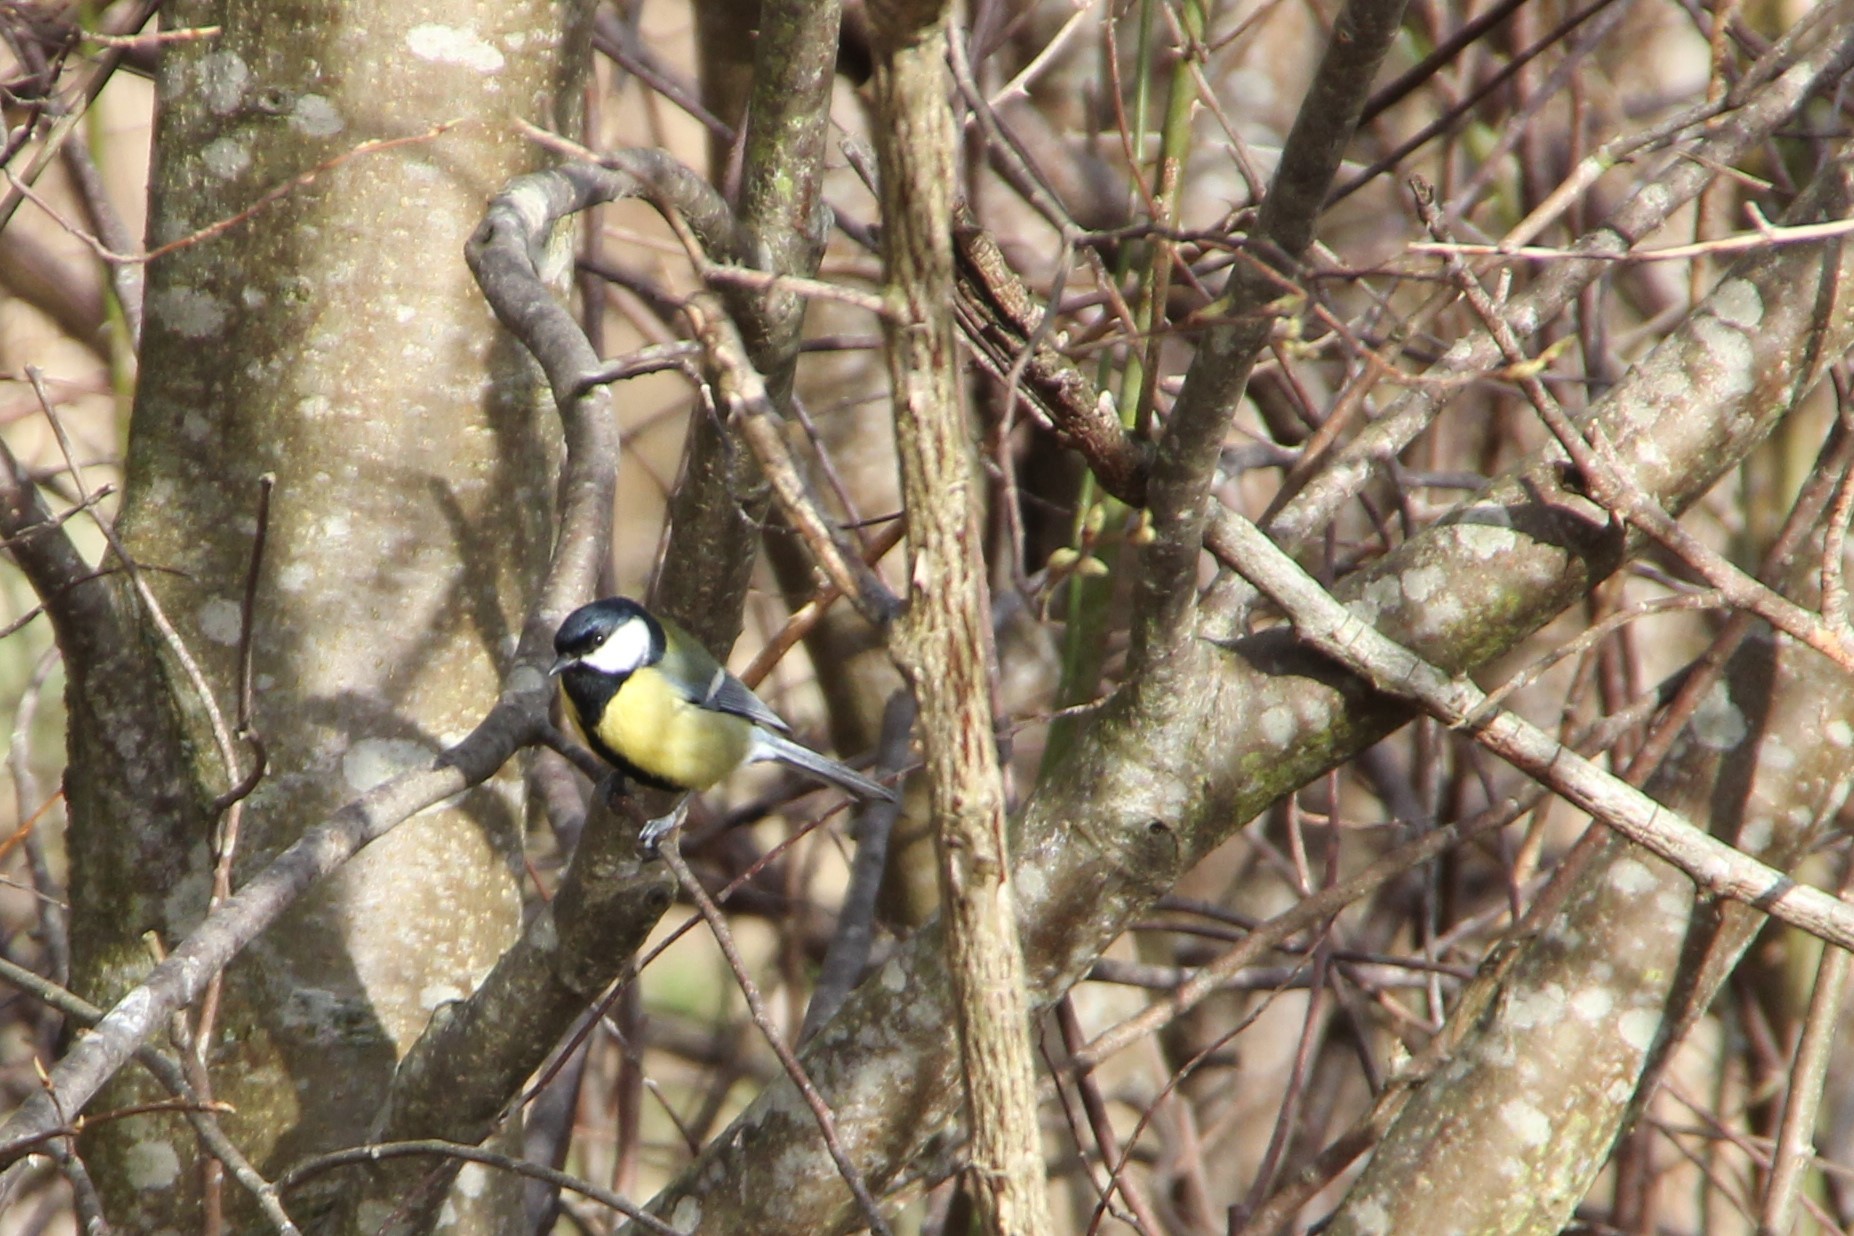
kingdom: Animalia
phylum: Chordata
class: Aves
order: Passeriformes
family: Paridae
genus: Parus
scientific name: Parus major
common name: Great tit
